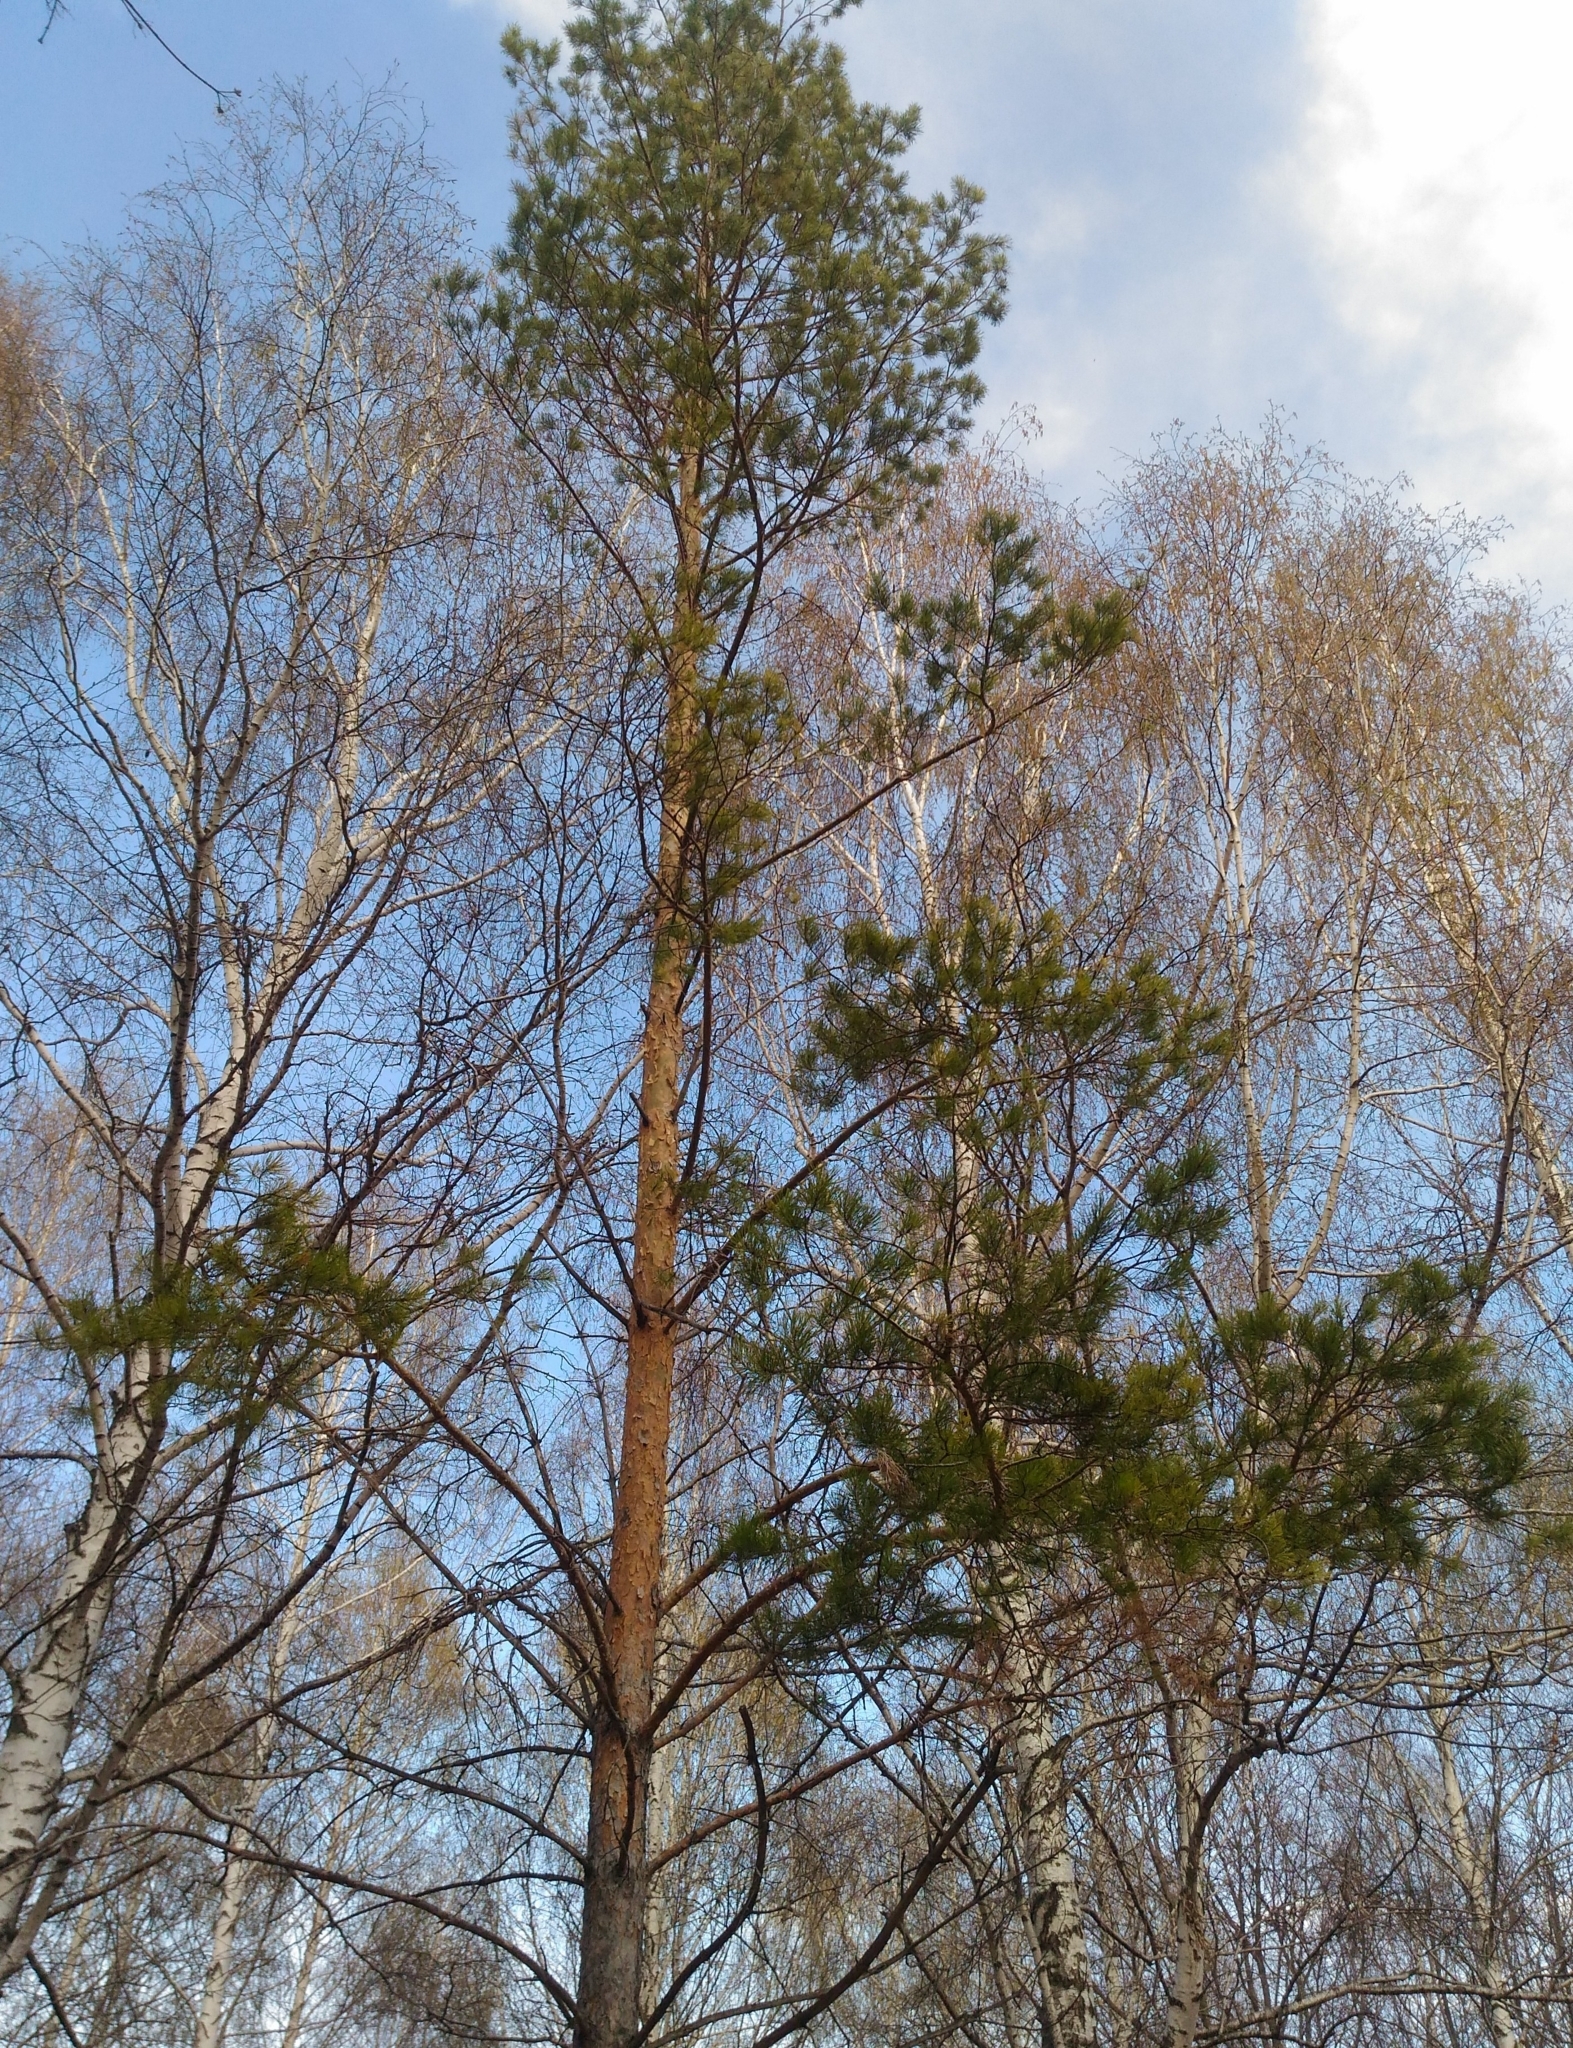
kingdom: Plantae
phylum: Tracheophyta
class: Pinopsida
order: Pinales
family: Pinaceae
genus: Pinus
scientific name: Pinus sylvestris
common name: Scots pine
